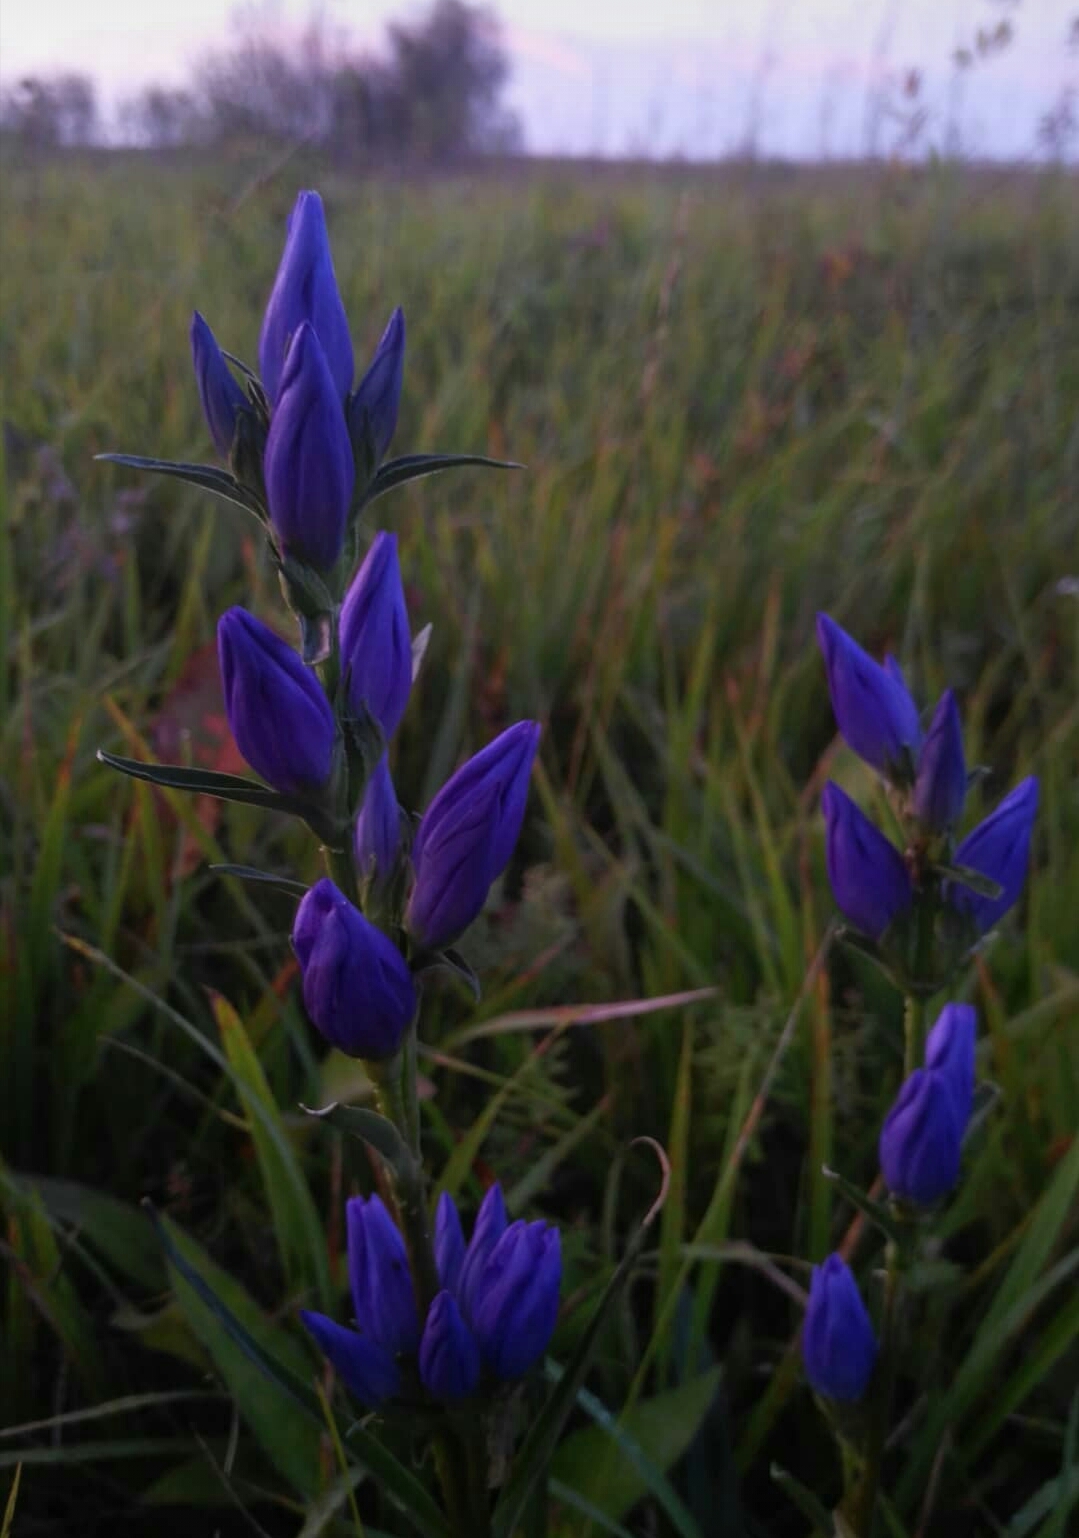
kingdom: Plantae
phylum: Tracheophyta
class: Magnoliopsida
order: Gentianales
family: Gentianaceae
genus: Gentiana
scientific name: Gentiana triflora
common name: Three-flower gentian
